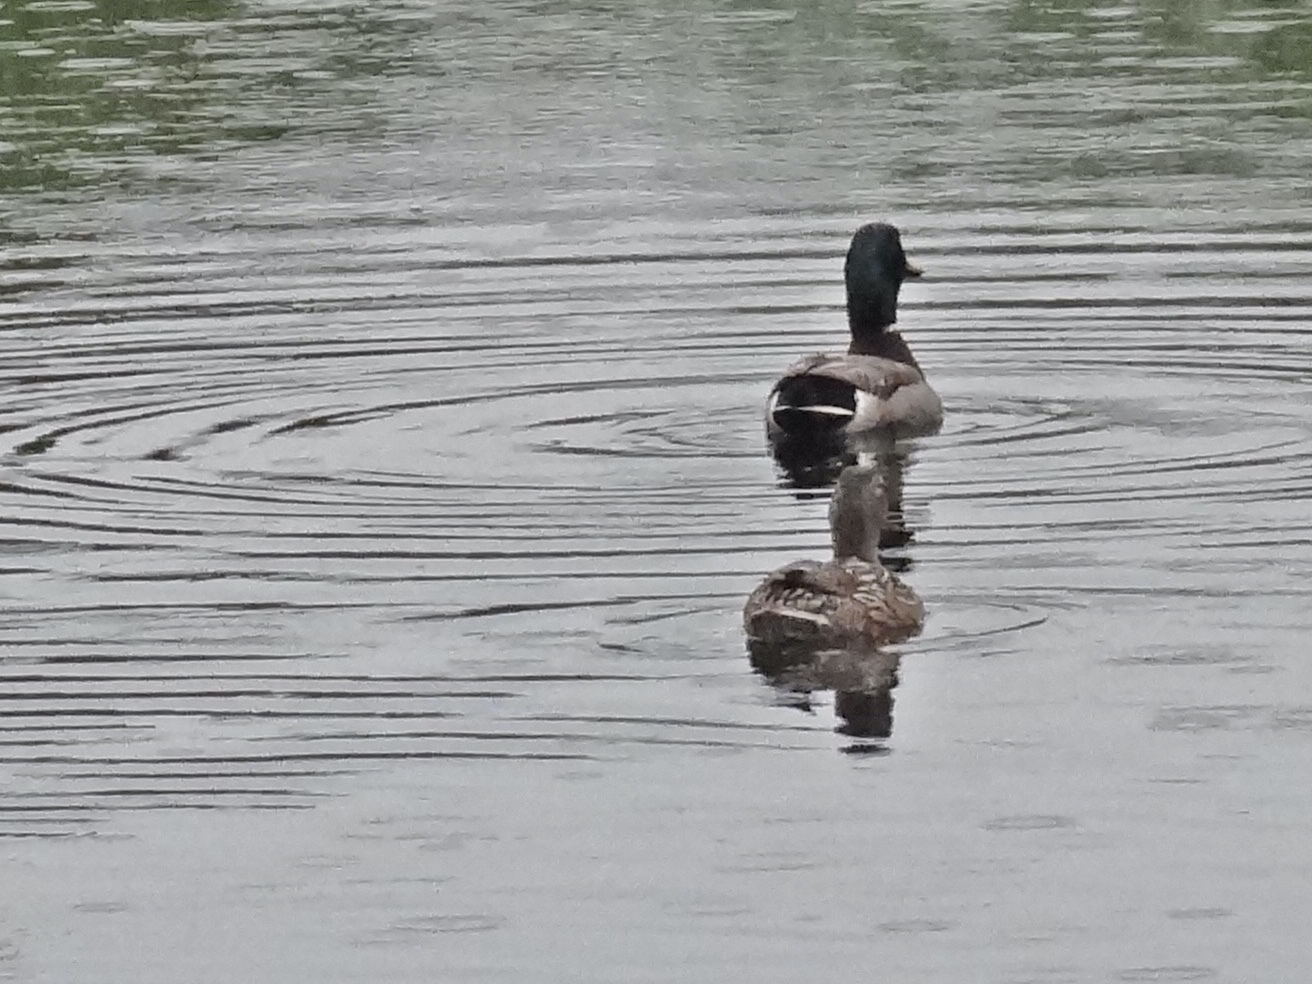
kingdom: Animalia
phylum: Chordata
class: Aves
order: Anseriformes
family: Anatidae
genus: Anas
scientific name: Anas platyrhynchos
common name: Mallard
